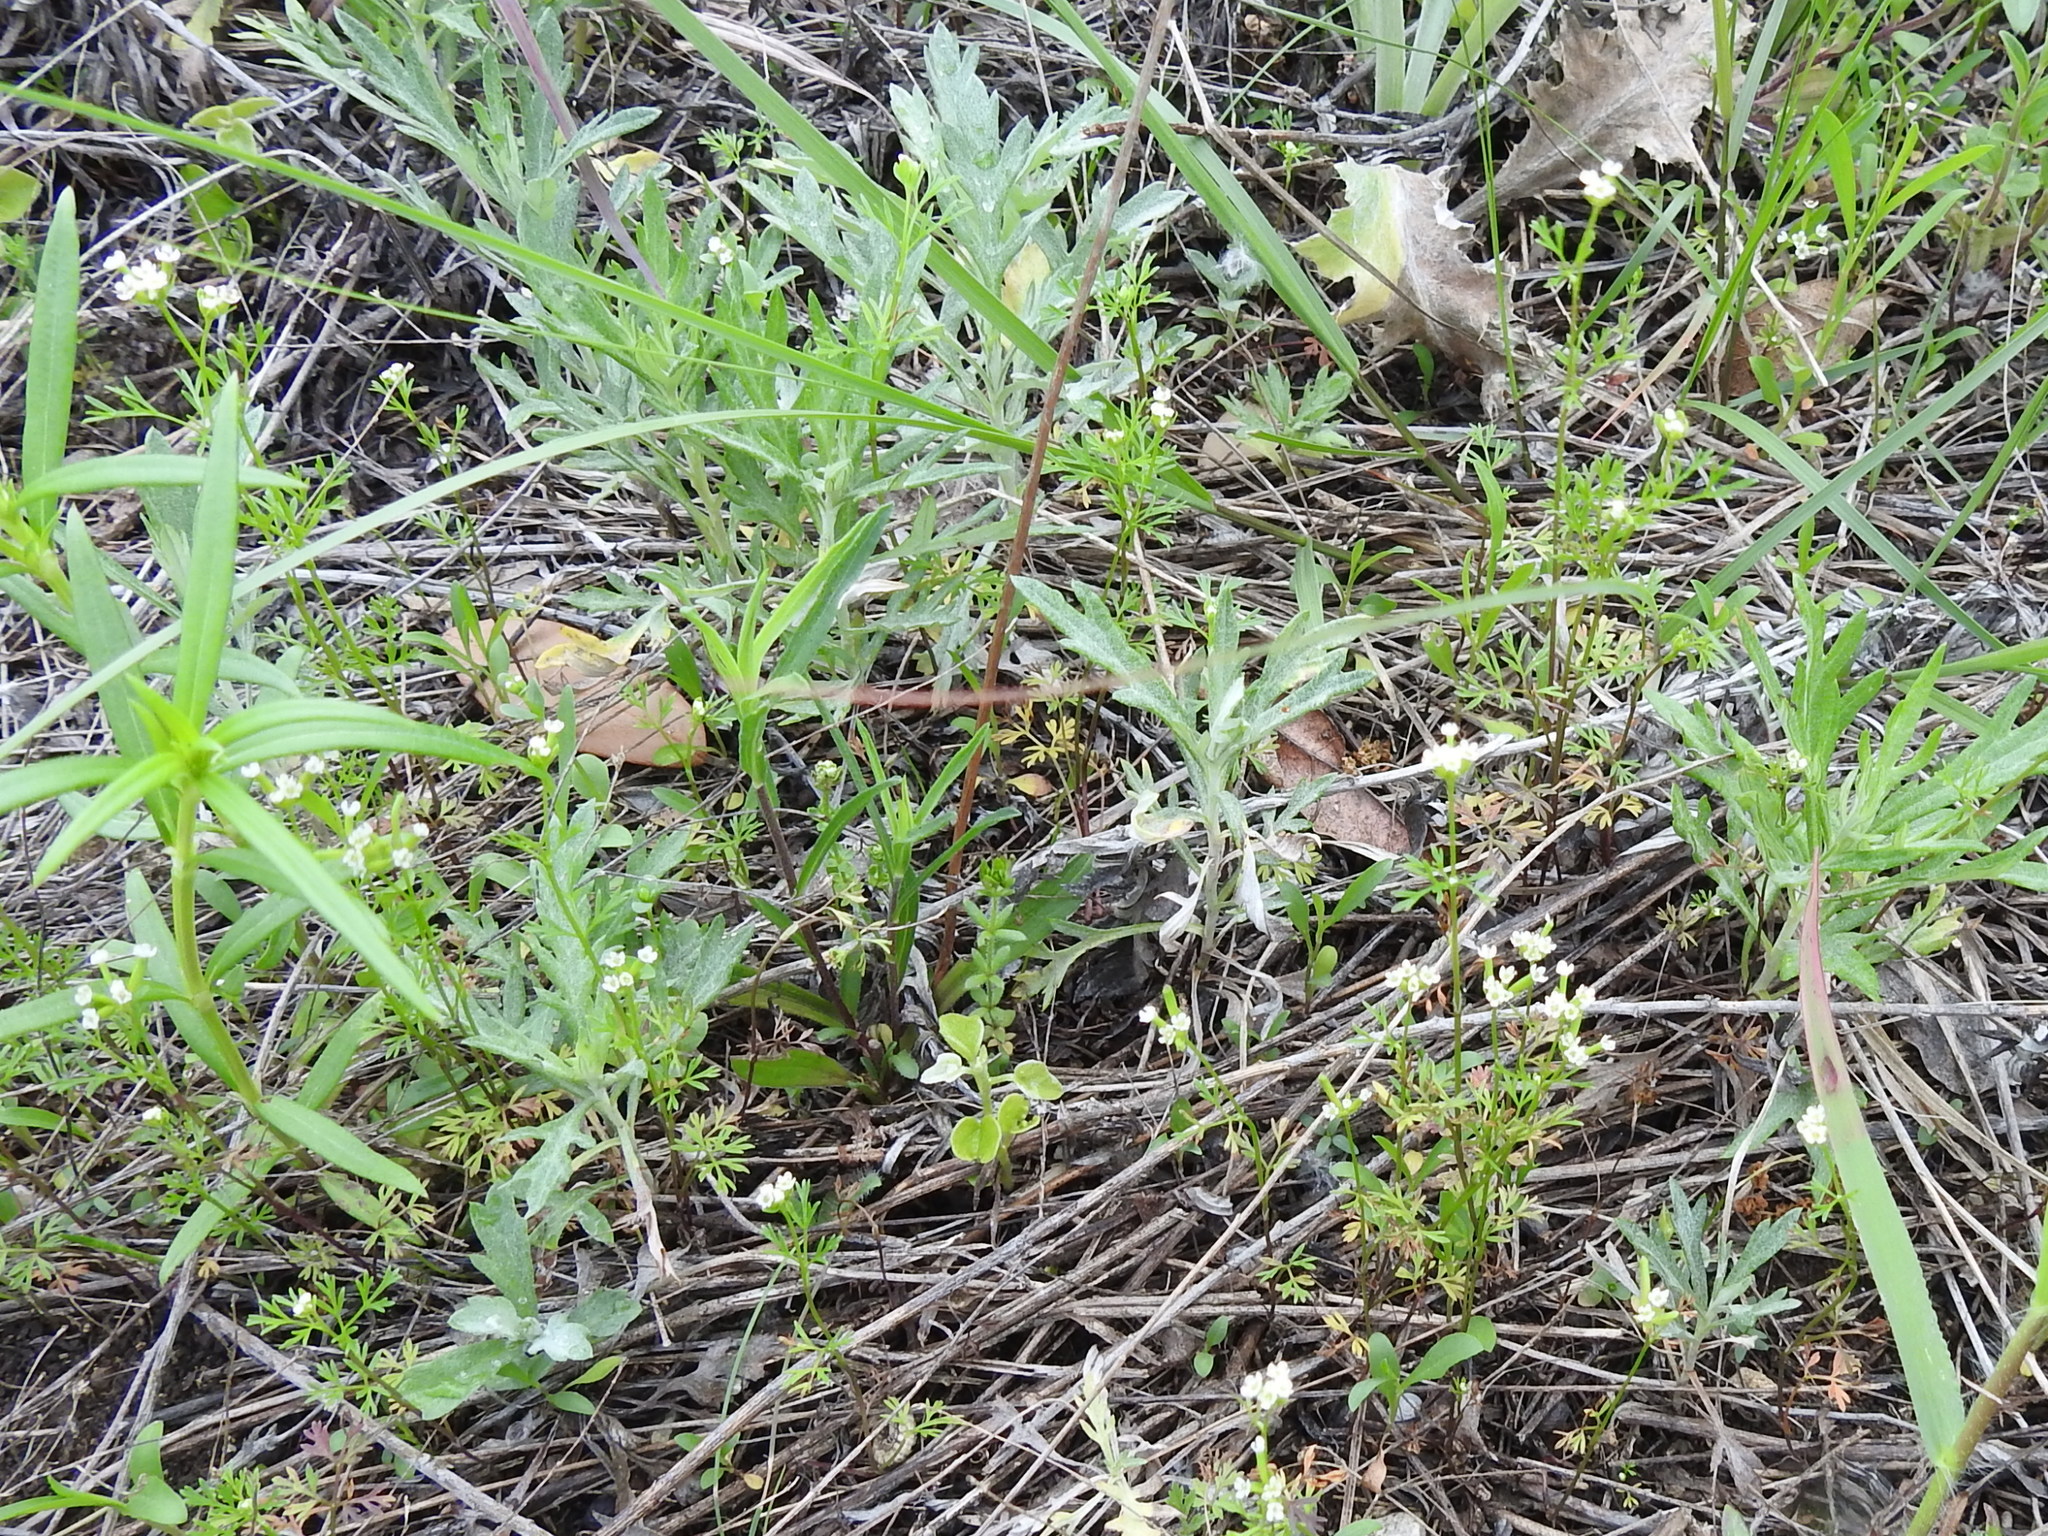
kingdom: Plantae
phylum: Tracheophyta
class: Magnoliopsida
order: Apiales
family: Apiaceae
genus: Chaerophyllum
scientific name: Chaerophyllum tainturieri
